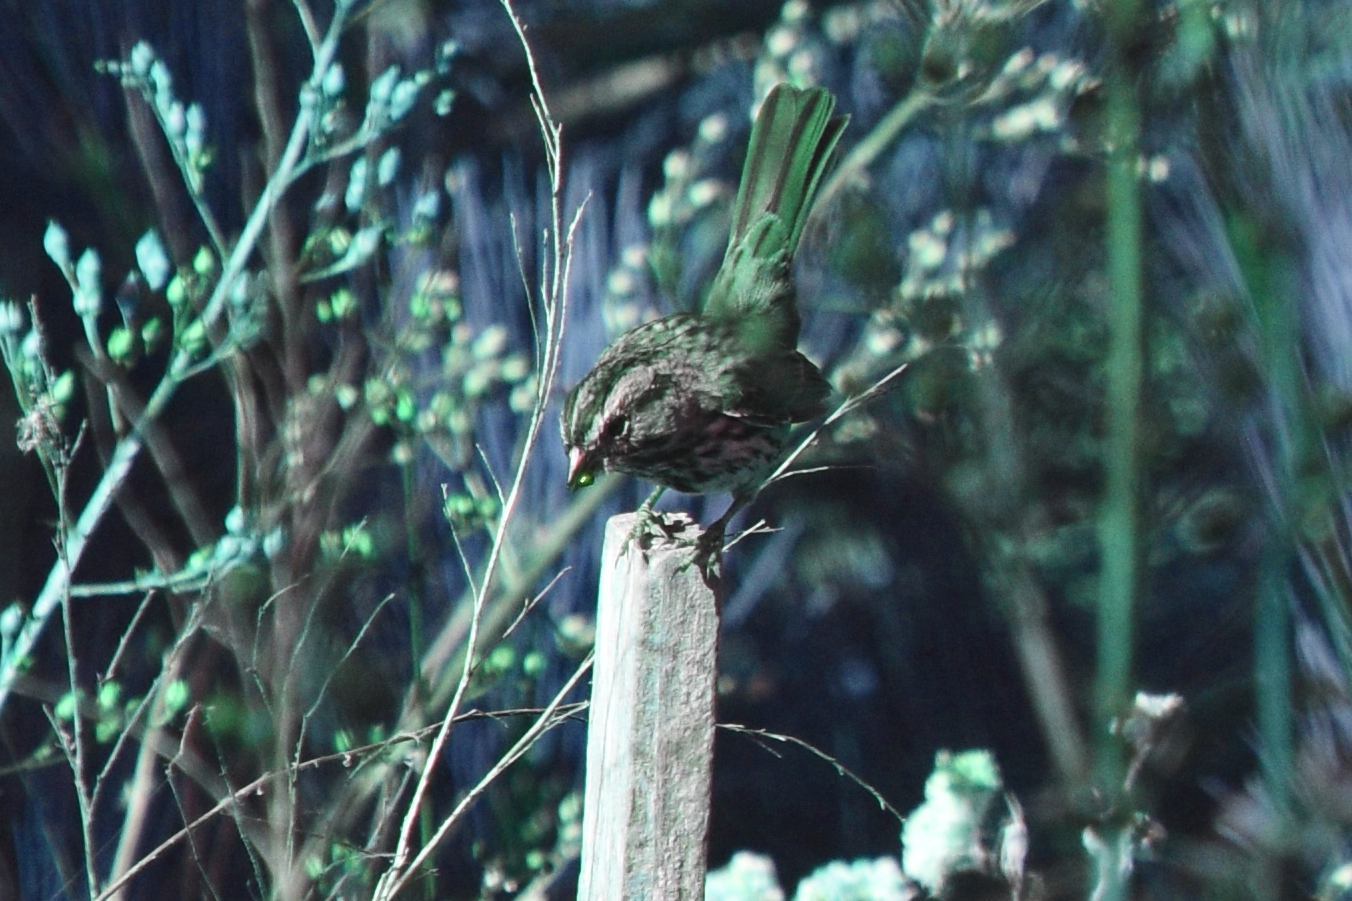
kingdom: Animalia
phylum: Chordata
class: Aves
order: Passeriformes
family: Passerellidae
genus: Melospiza
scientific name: Melospiza melodia
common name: Song sparrow
